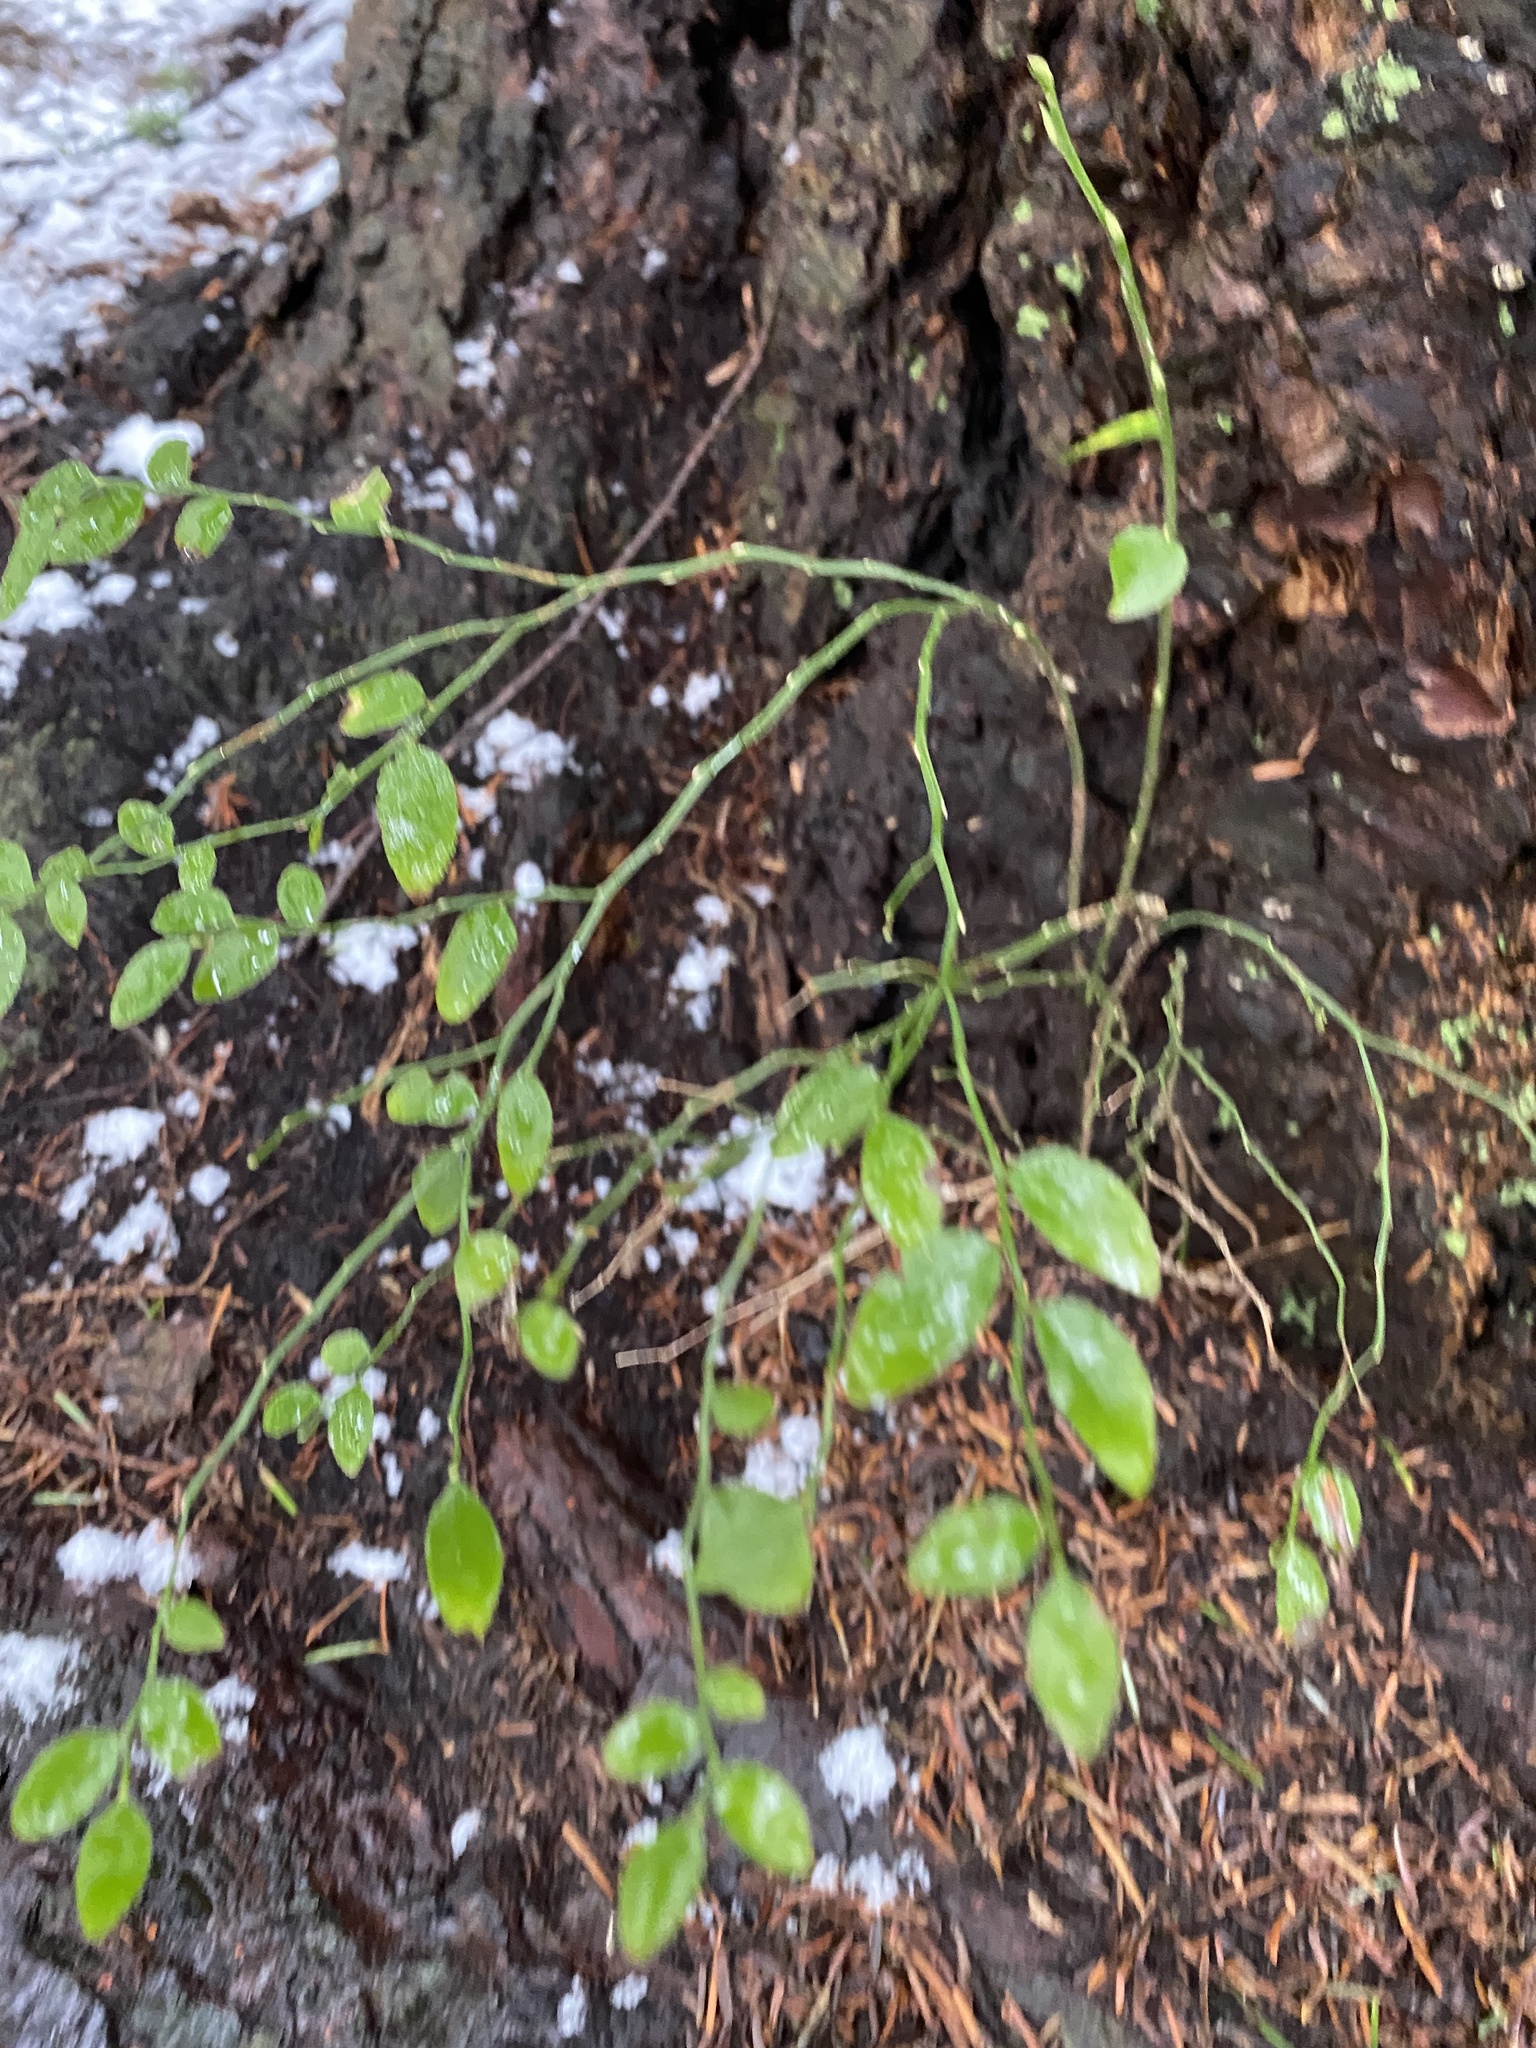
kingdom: Plantae
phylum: Tracheophyta
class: Magnoliopsida
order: Ericales
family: Ericaceae
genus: Vaccinium
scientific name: Vaccinium parvifolium
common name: Red-huckleberry
